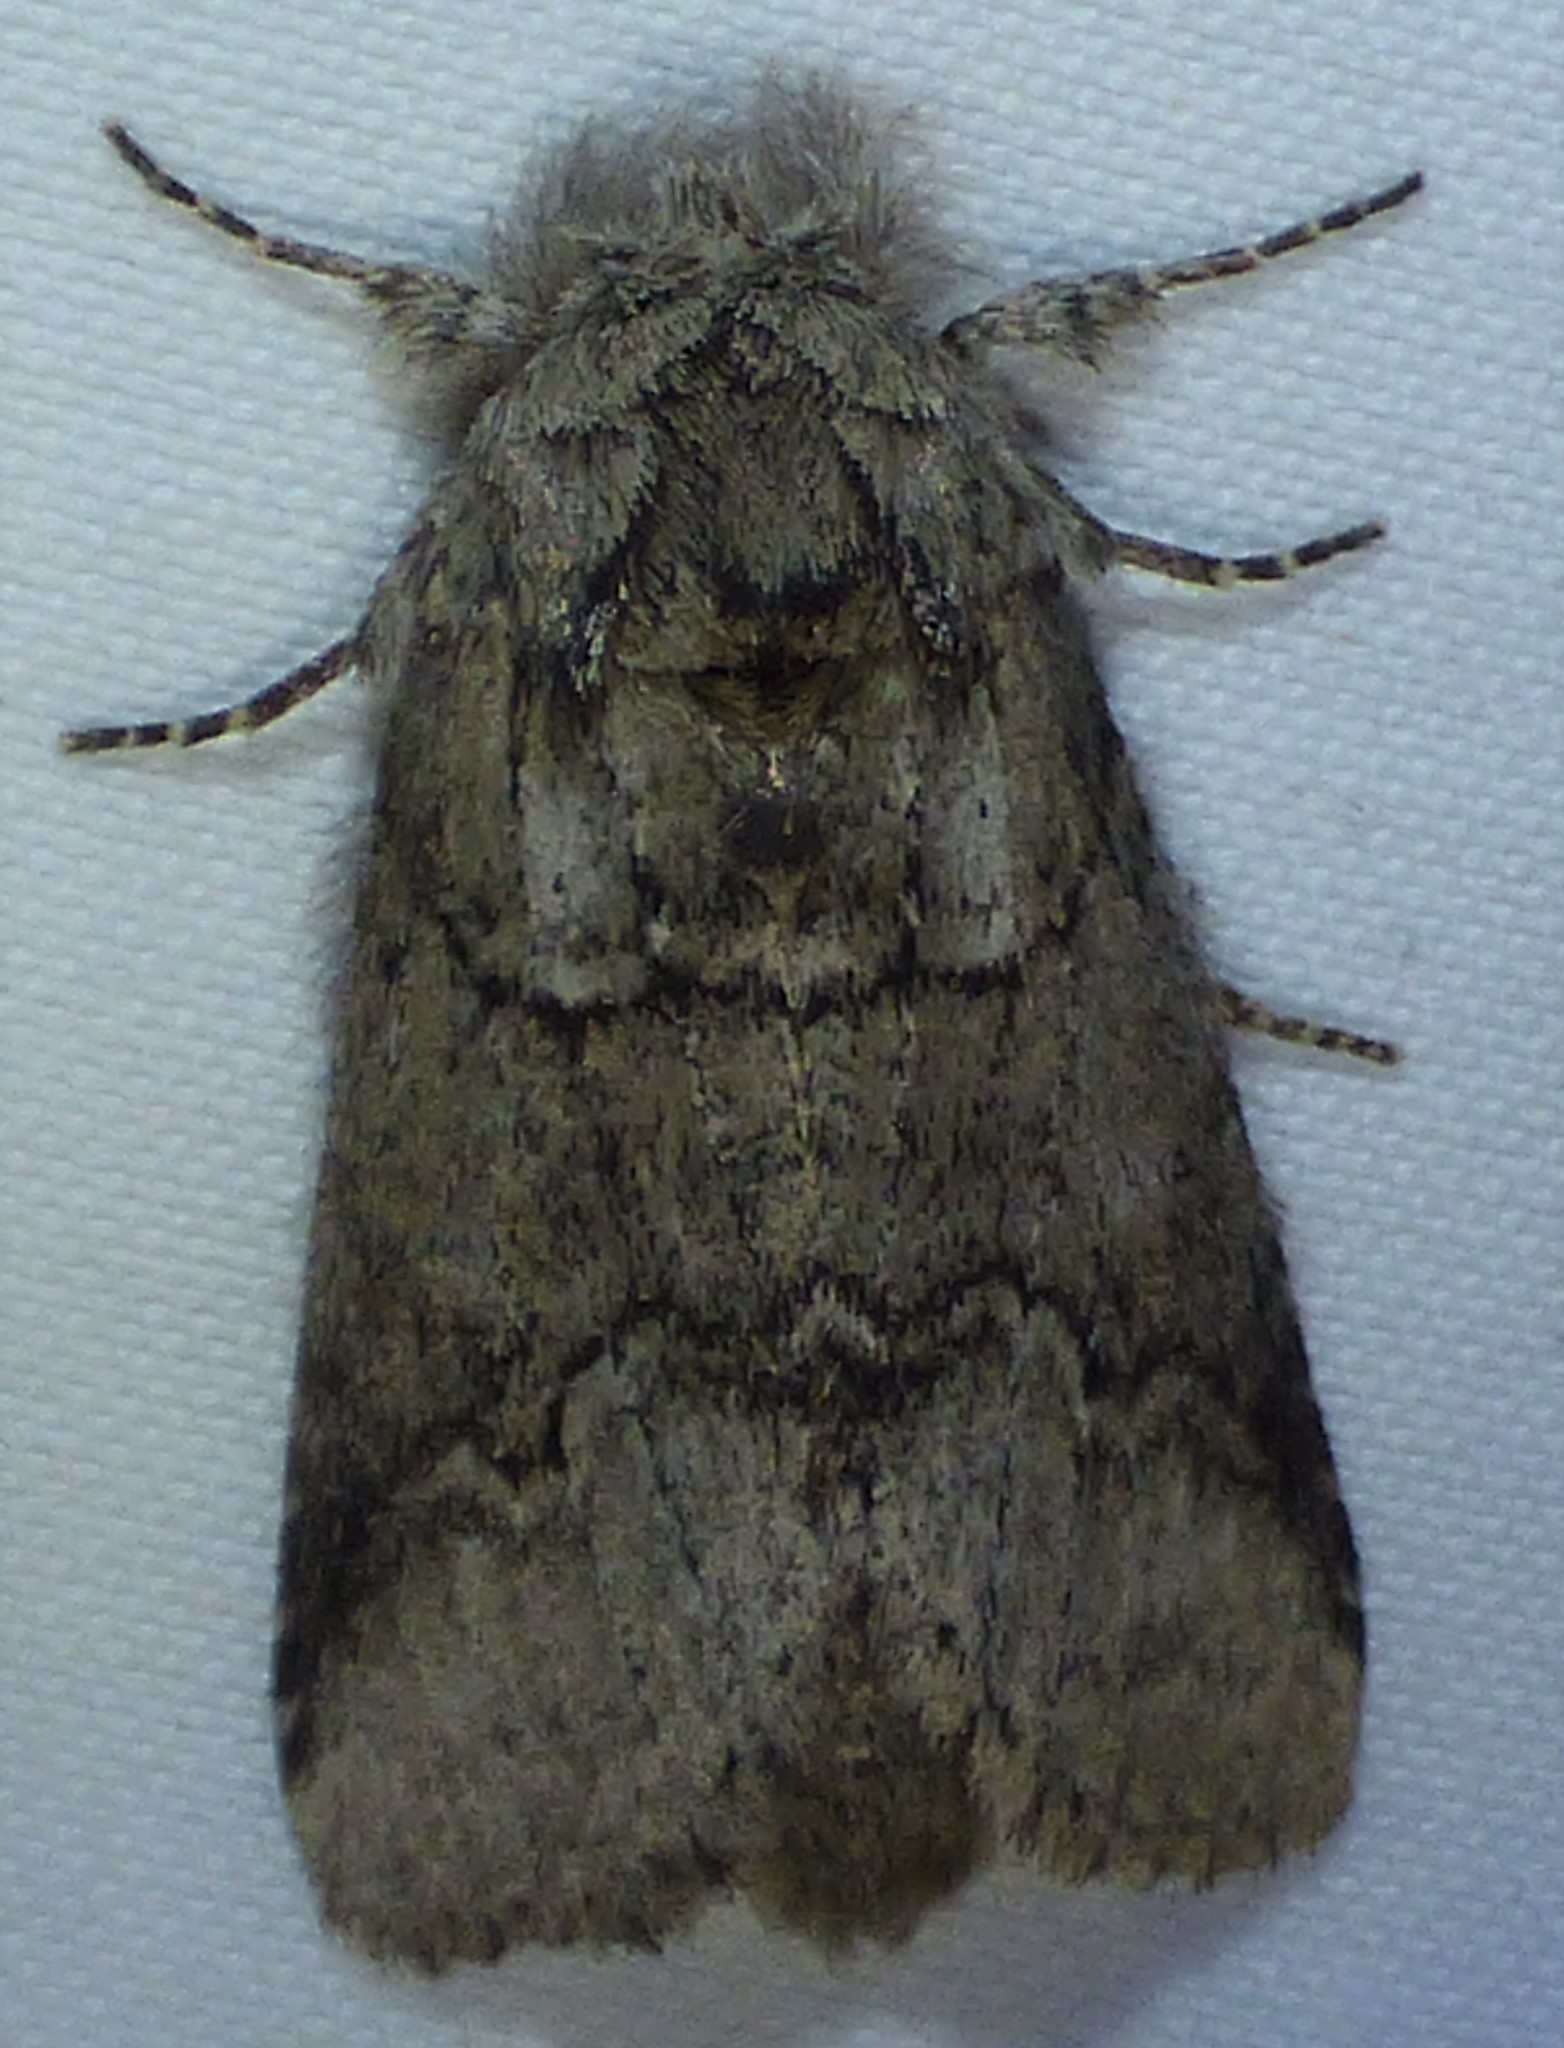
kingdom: Animalia
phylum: Arthropoda
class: Insecta
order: Lepidoptera
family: Notodontidae
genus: Lochmaeus
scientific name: Lochmaeus bilineata
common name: Double-lined prominent
